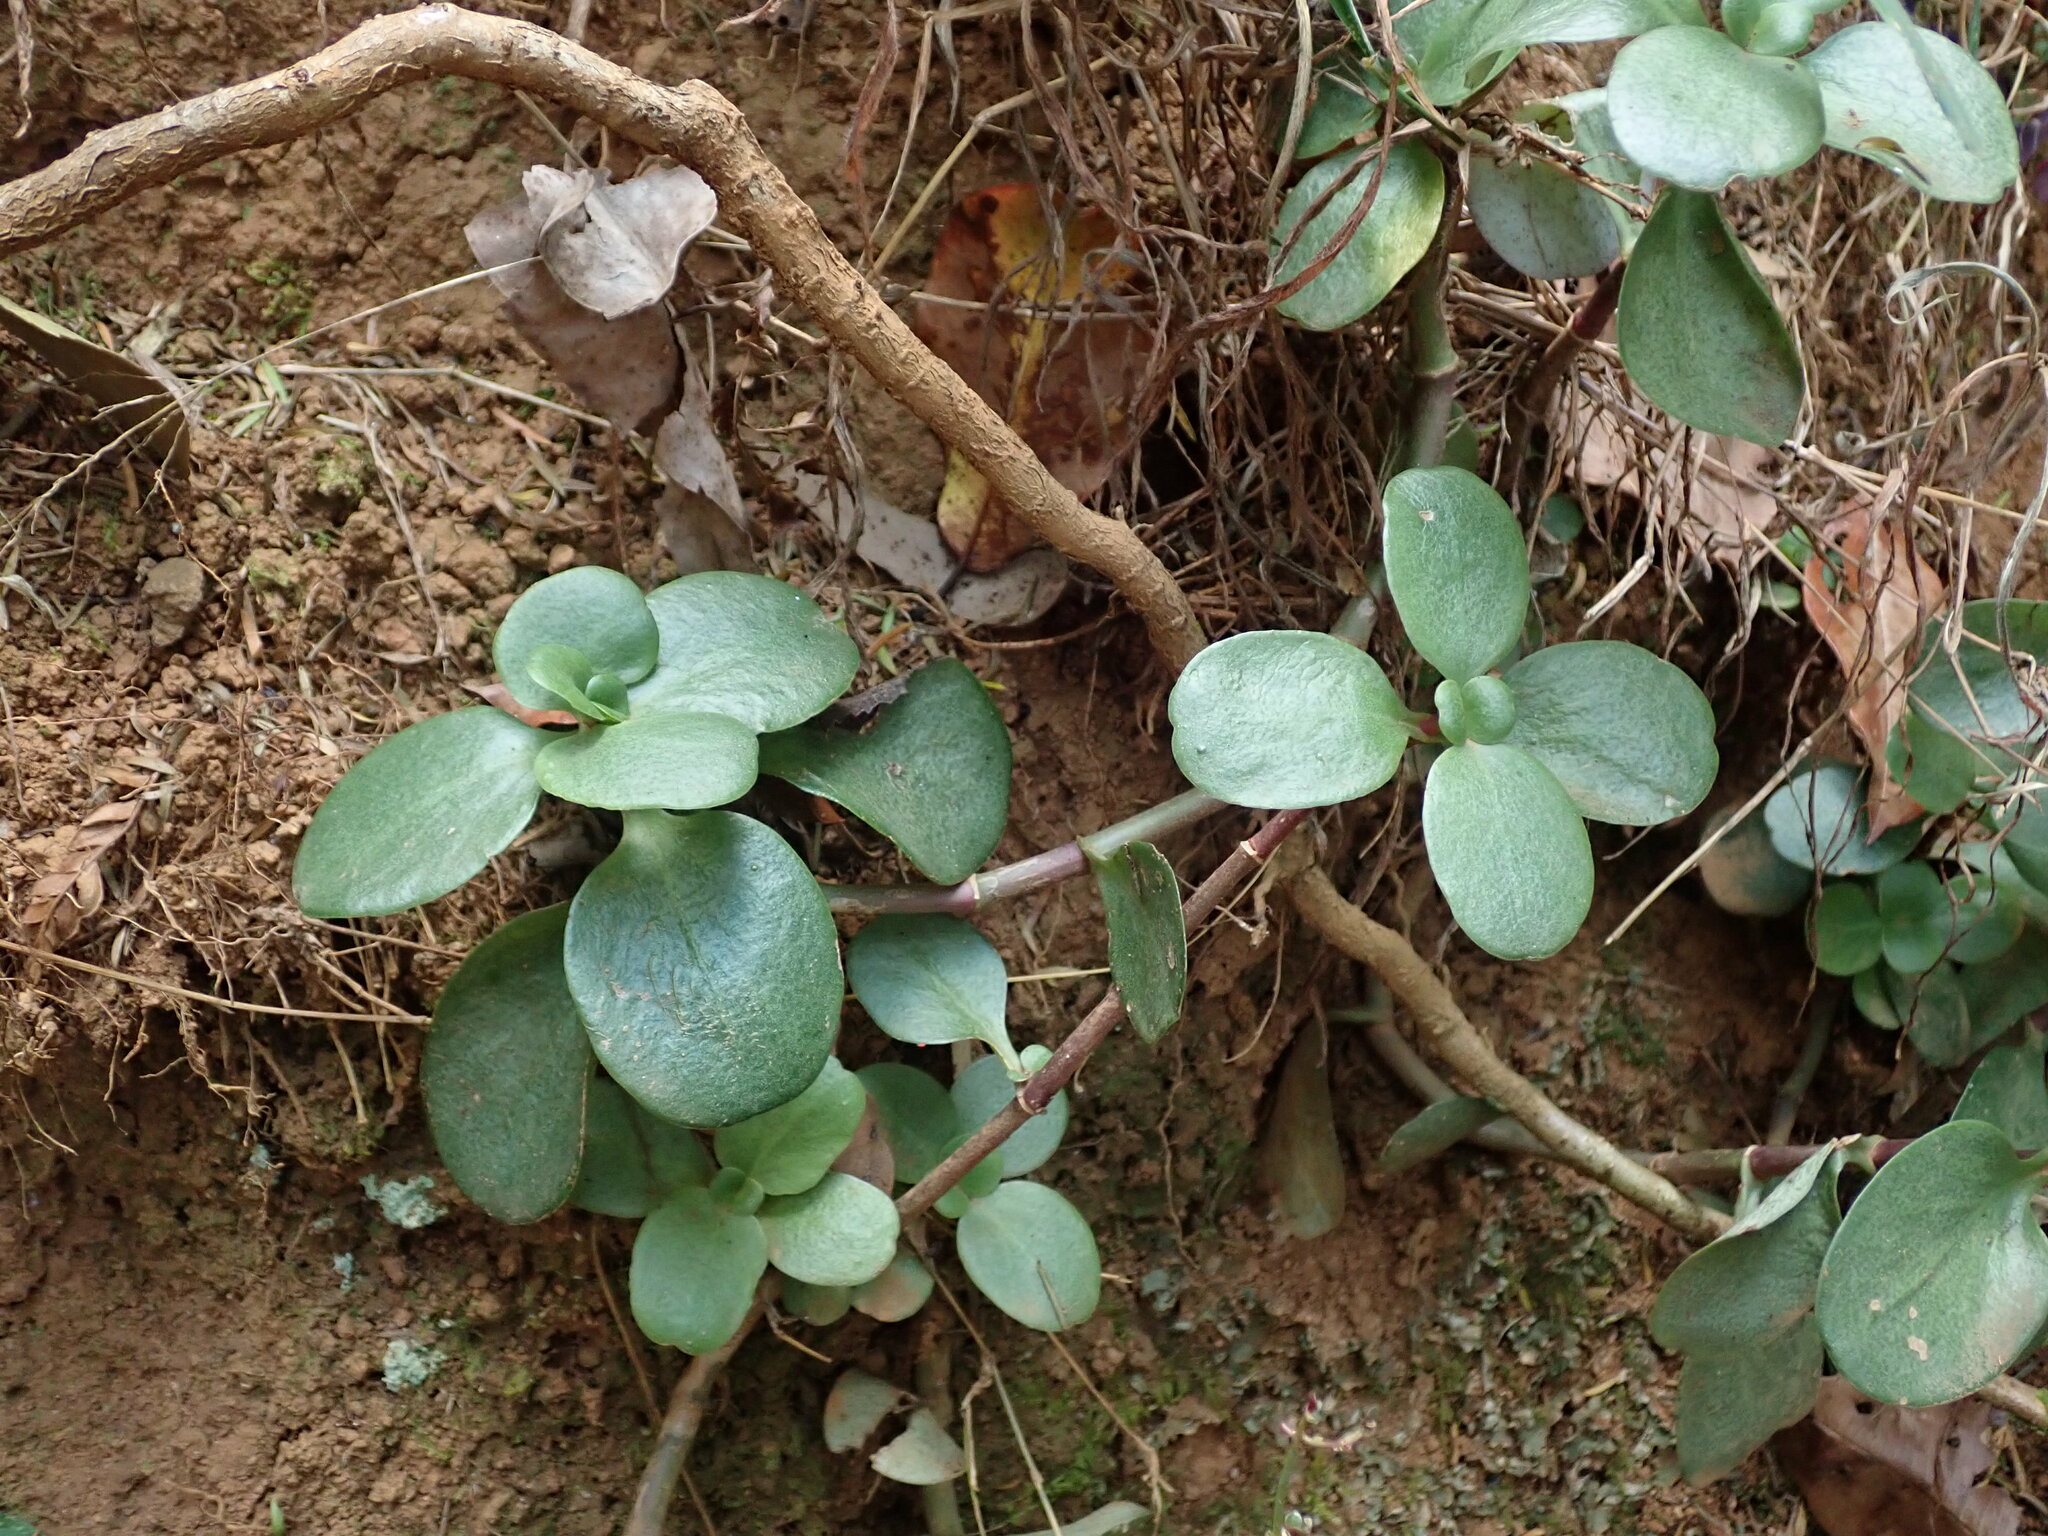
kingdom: Plantae
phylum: Tracheophyta
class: Magnoliopsida
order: Saxifragales
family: Crassulaceae
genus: Crassula
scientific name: Crassula multicava
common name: Cape province pygmyweed
